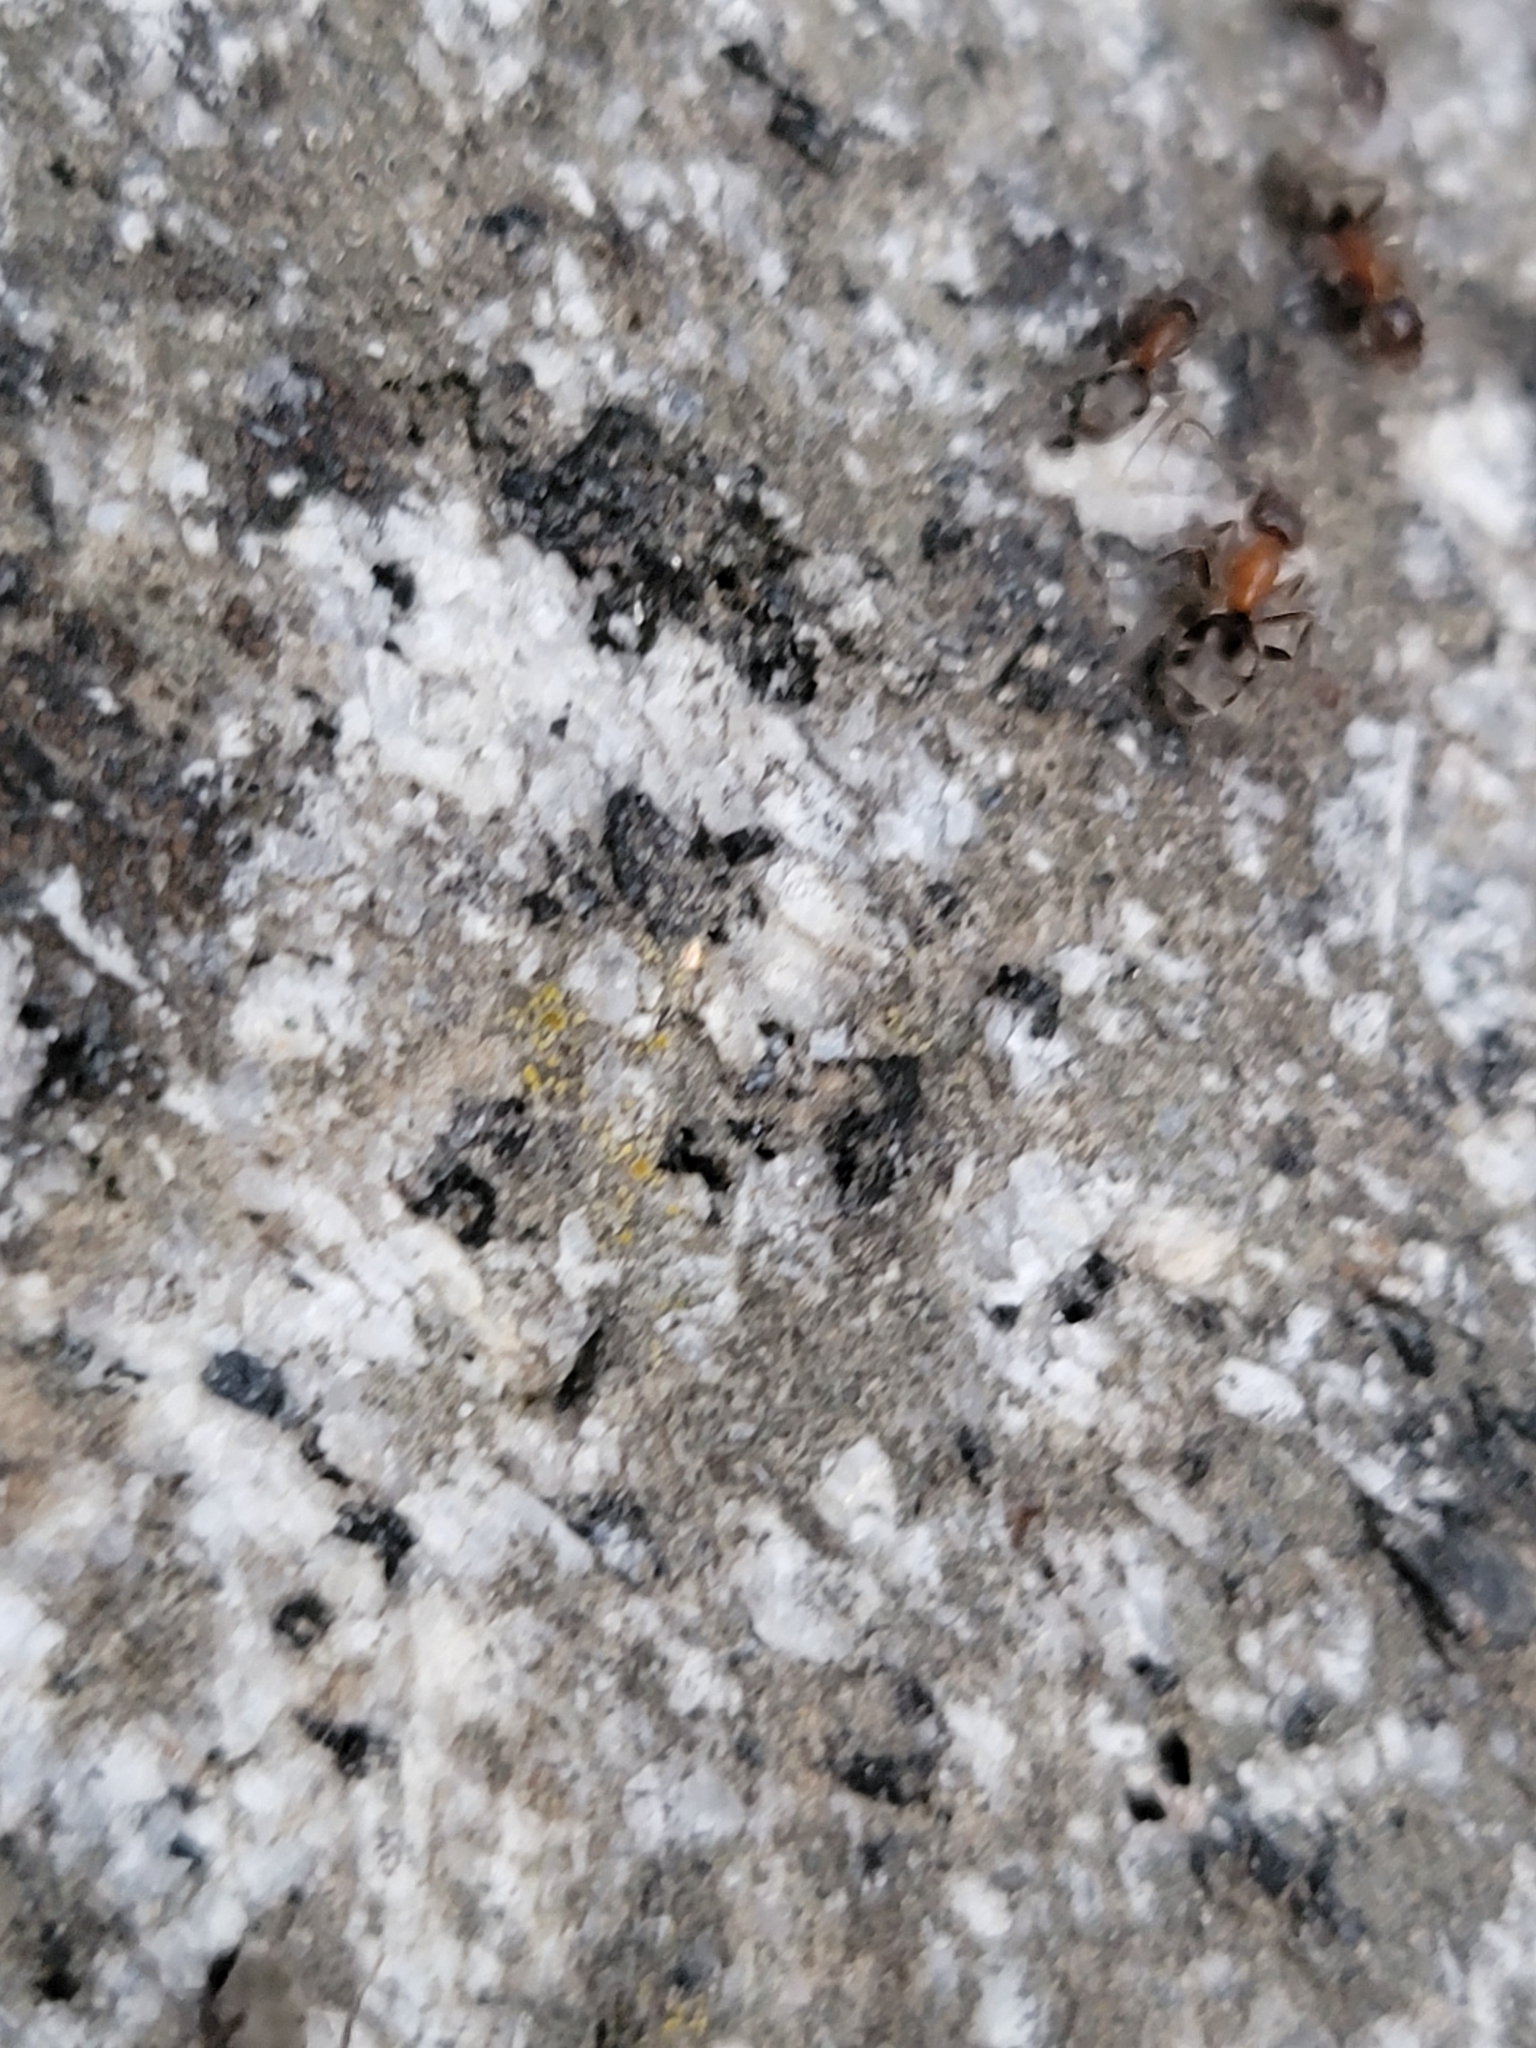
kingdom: Animalia
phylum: Arthropoda
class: Insecta
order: Hymenoptera
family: Formicidae
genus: Liometopum
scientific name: Liometopum occidentale
